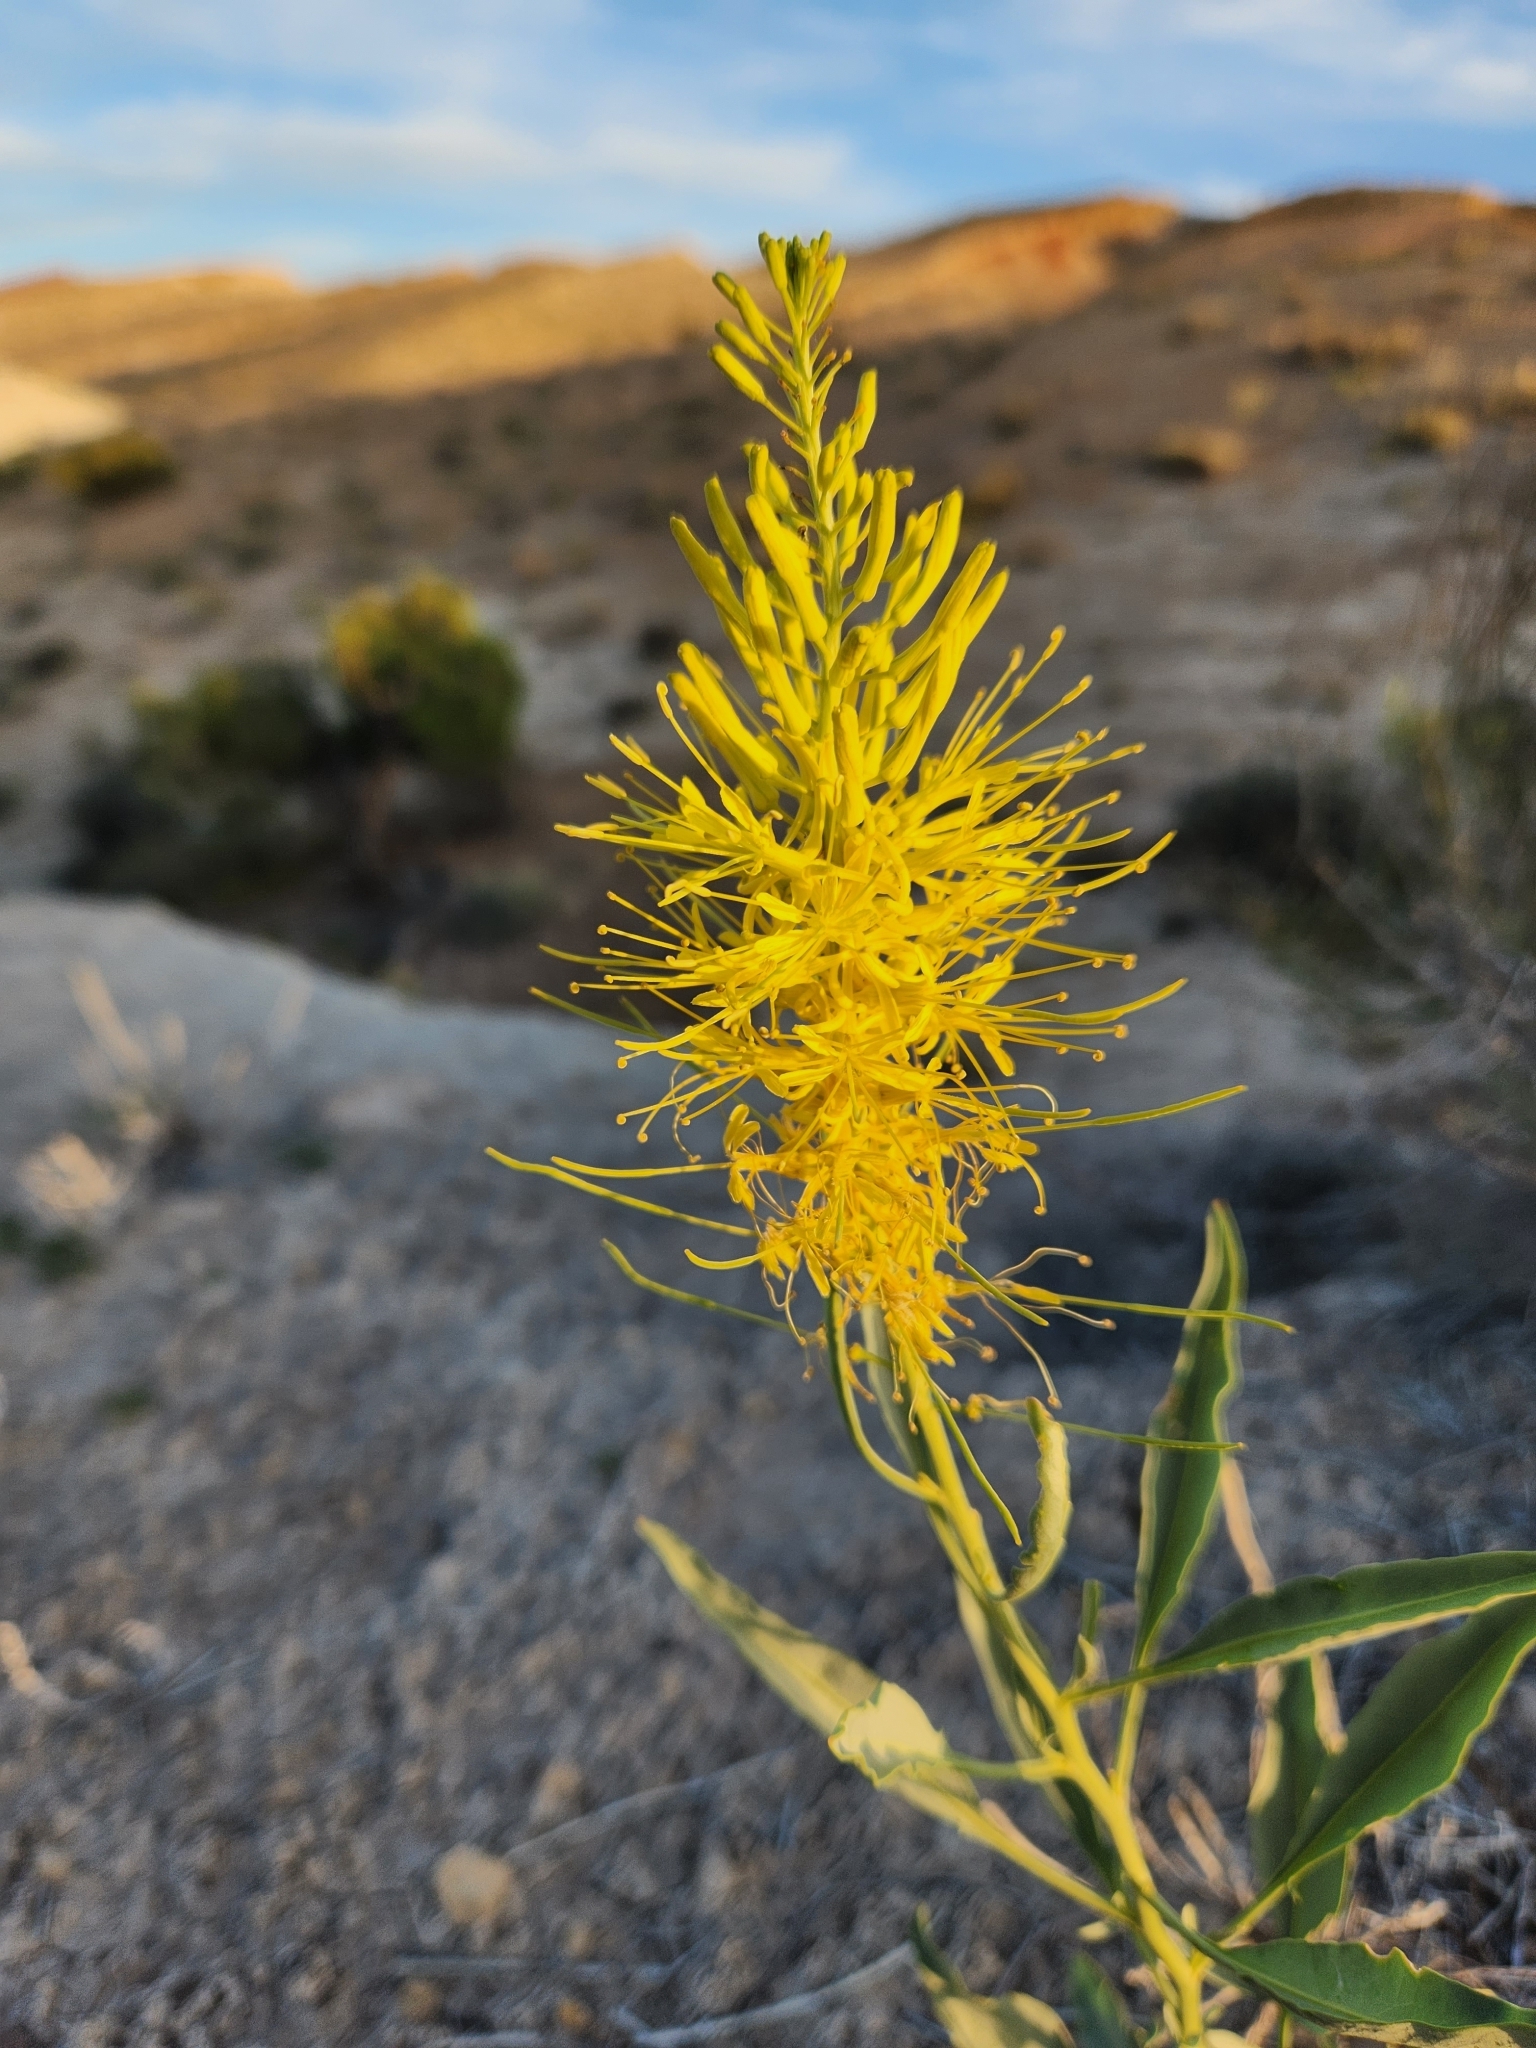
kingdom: Plantae
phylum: Tracheophyta
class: Magnoliopsida
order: Brassicales
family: Brassicaceae
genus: Stanleya
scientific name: Stanleya pinnata
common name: Prince's-plume
